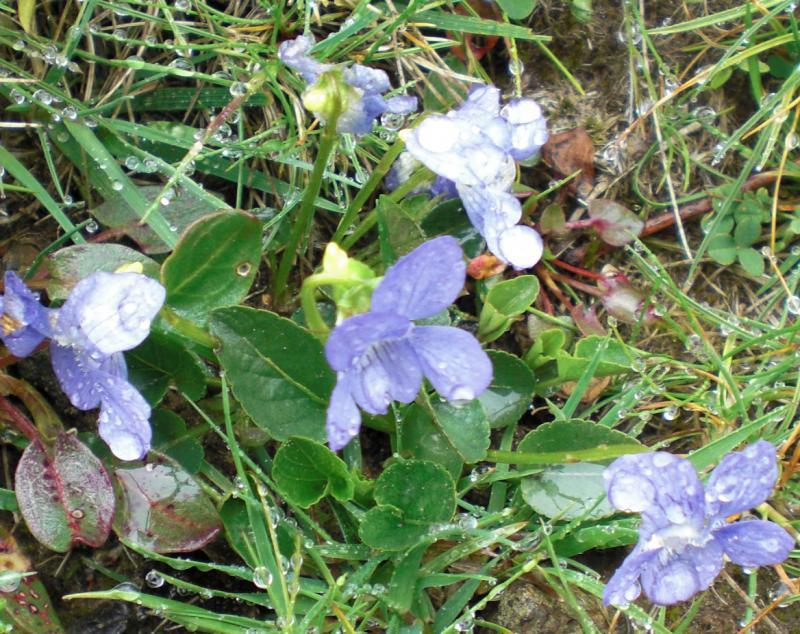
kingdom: Plantae
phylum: Tracheophyta
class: Magnoliopsida
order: Malpighiales
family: Violaceae
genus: Viola
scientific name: Viola canina
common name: Heath dog-violet
